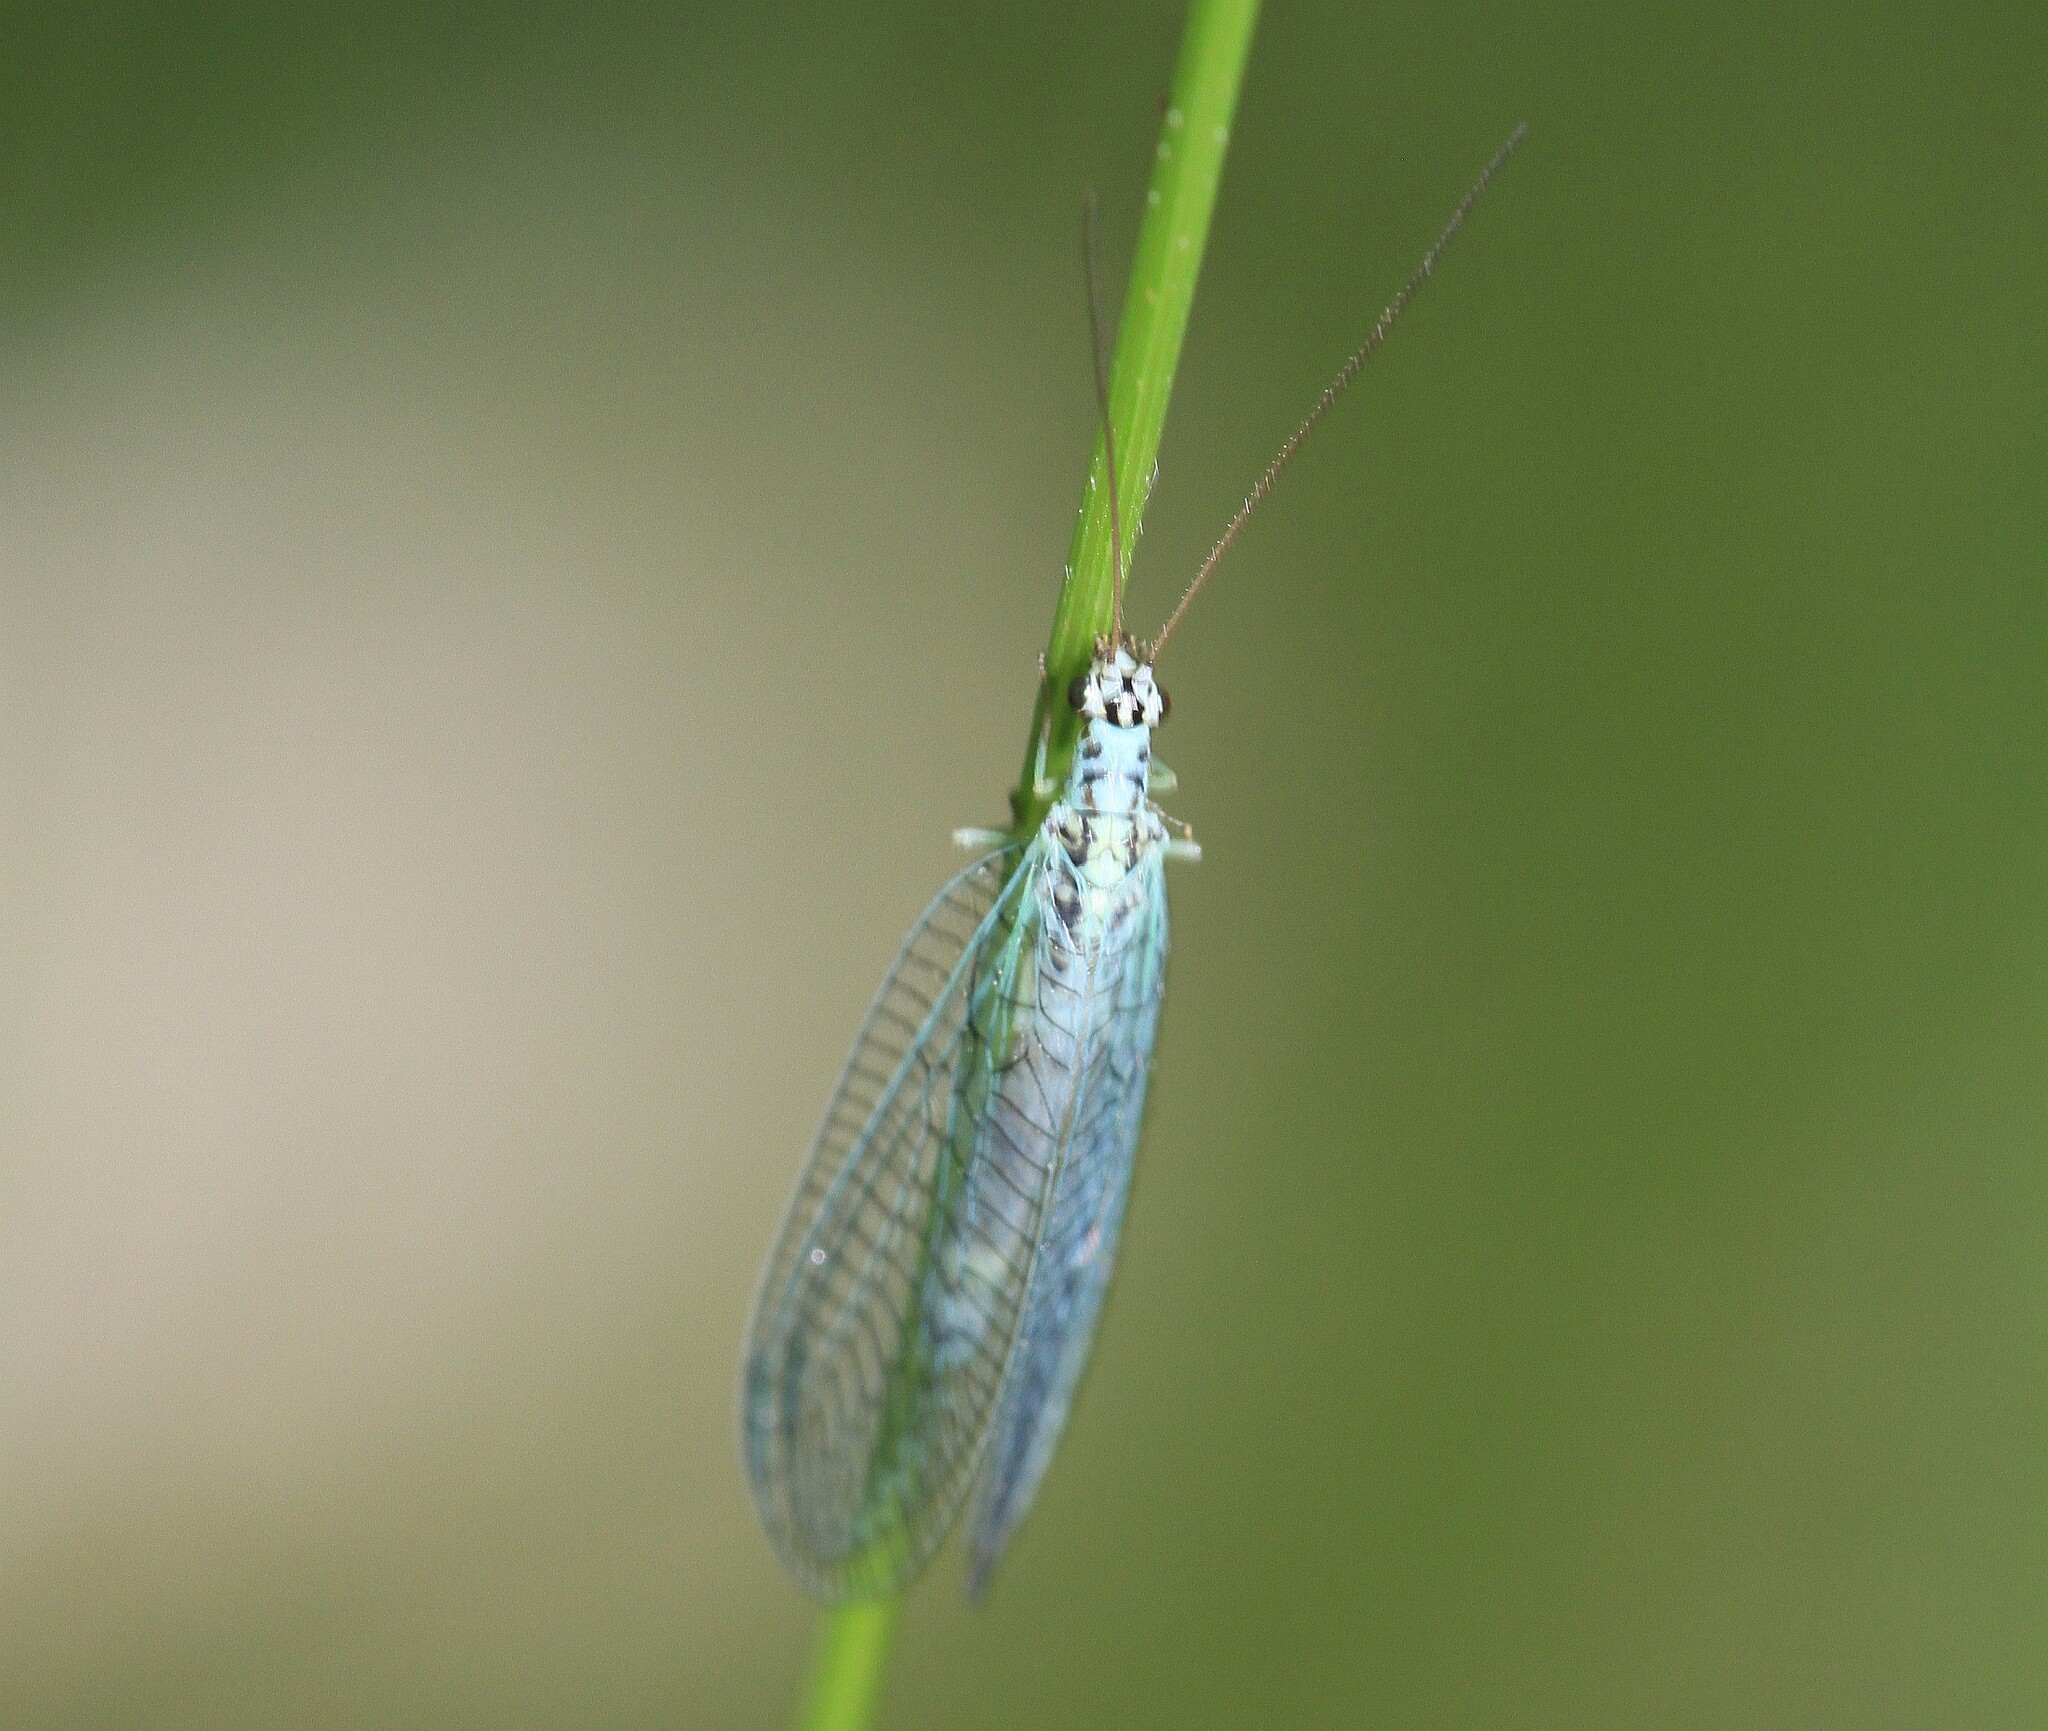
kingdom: Animalia
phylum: Arthropoda
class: Insecta
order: Neuroptera
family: Chrysopidae
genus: Chrysopa
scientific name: Chrysopa perla
